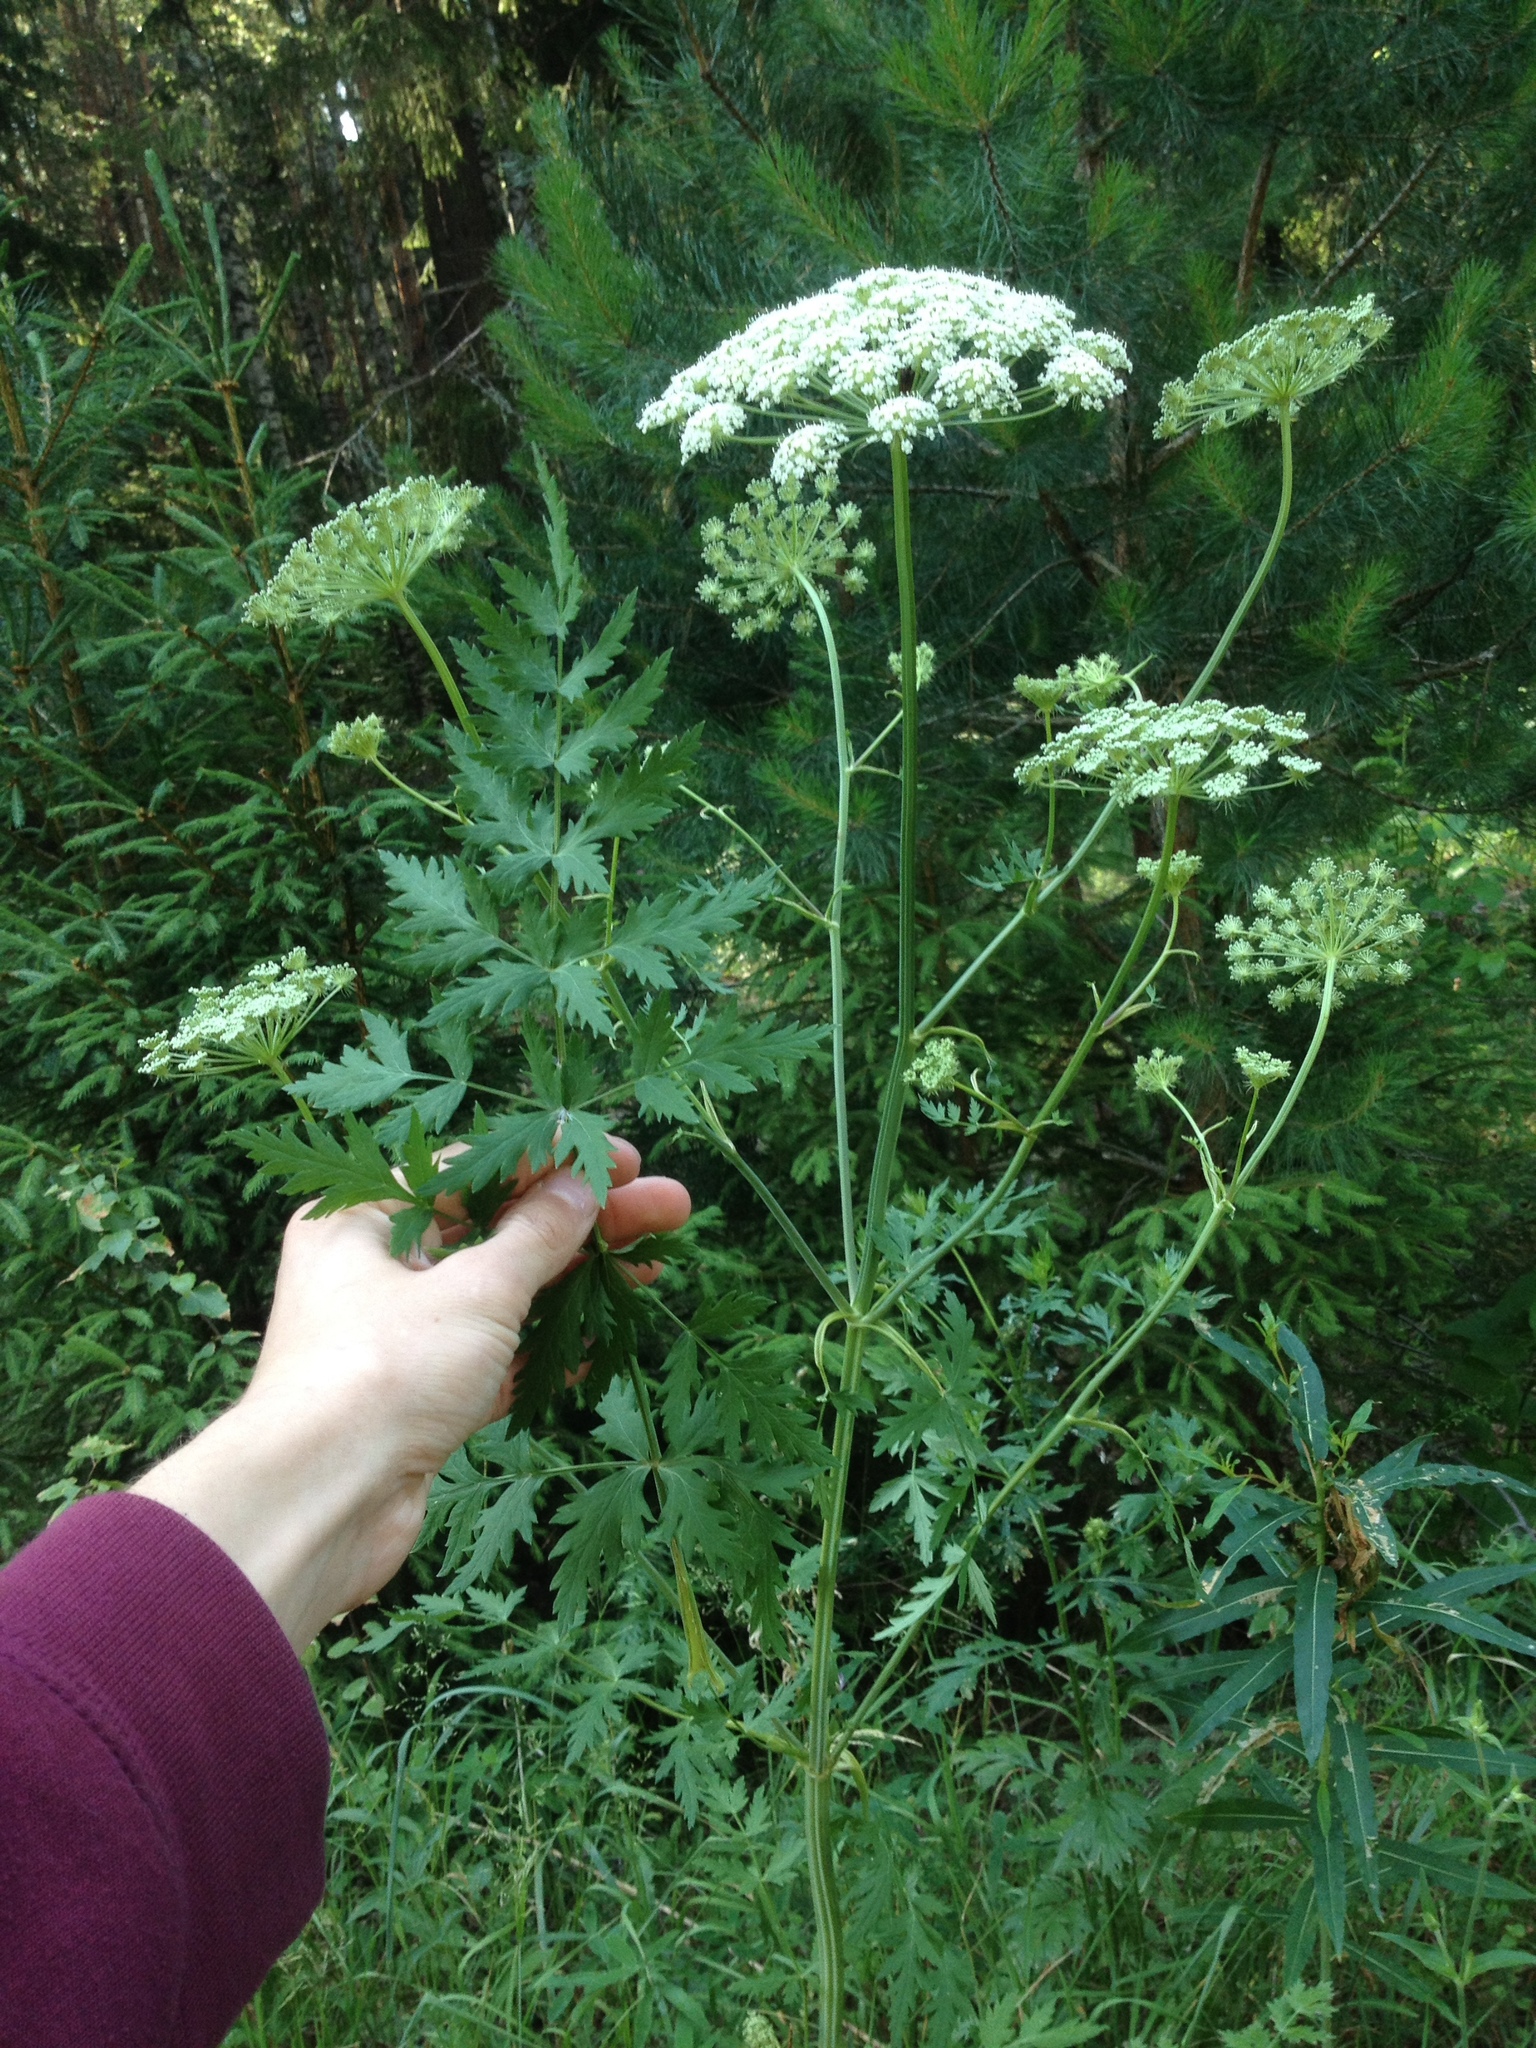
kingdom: Plantae
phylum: Tracheophyta
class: Magnoliopsida
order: Apiales
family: Apiaceae
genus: Seseli
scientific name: Seseli libanotis
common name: Mooncarrot
